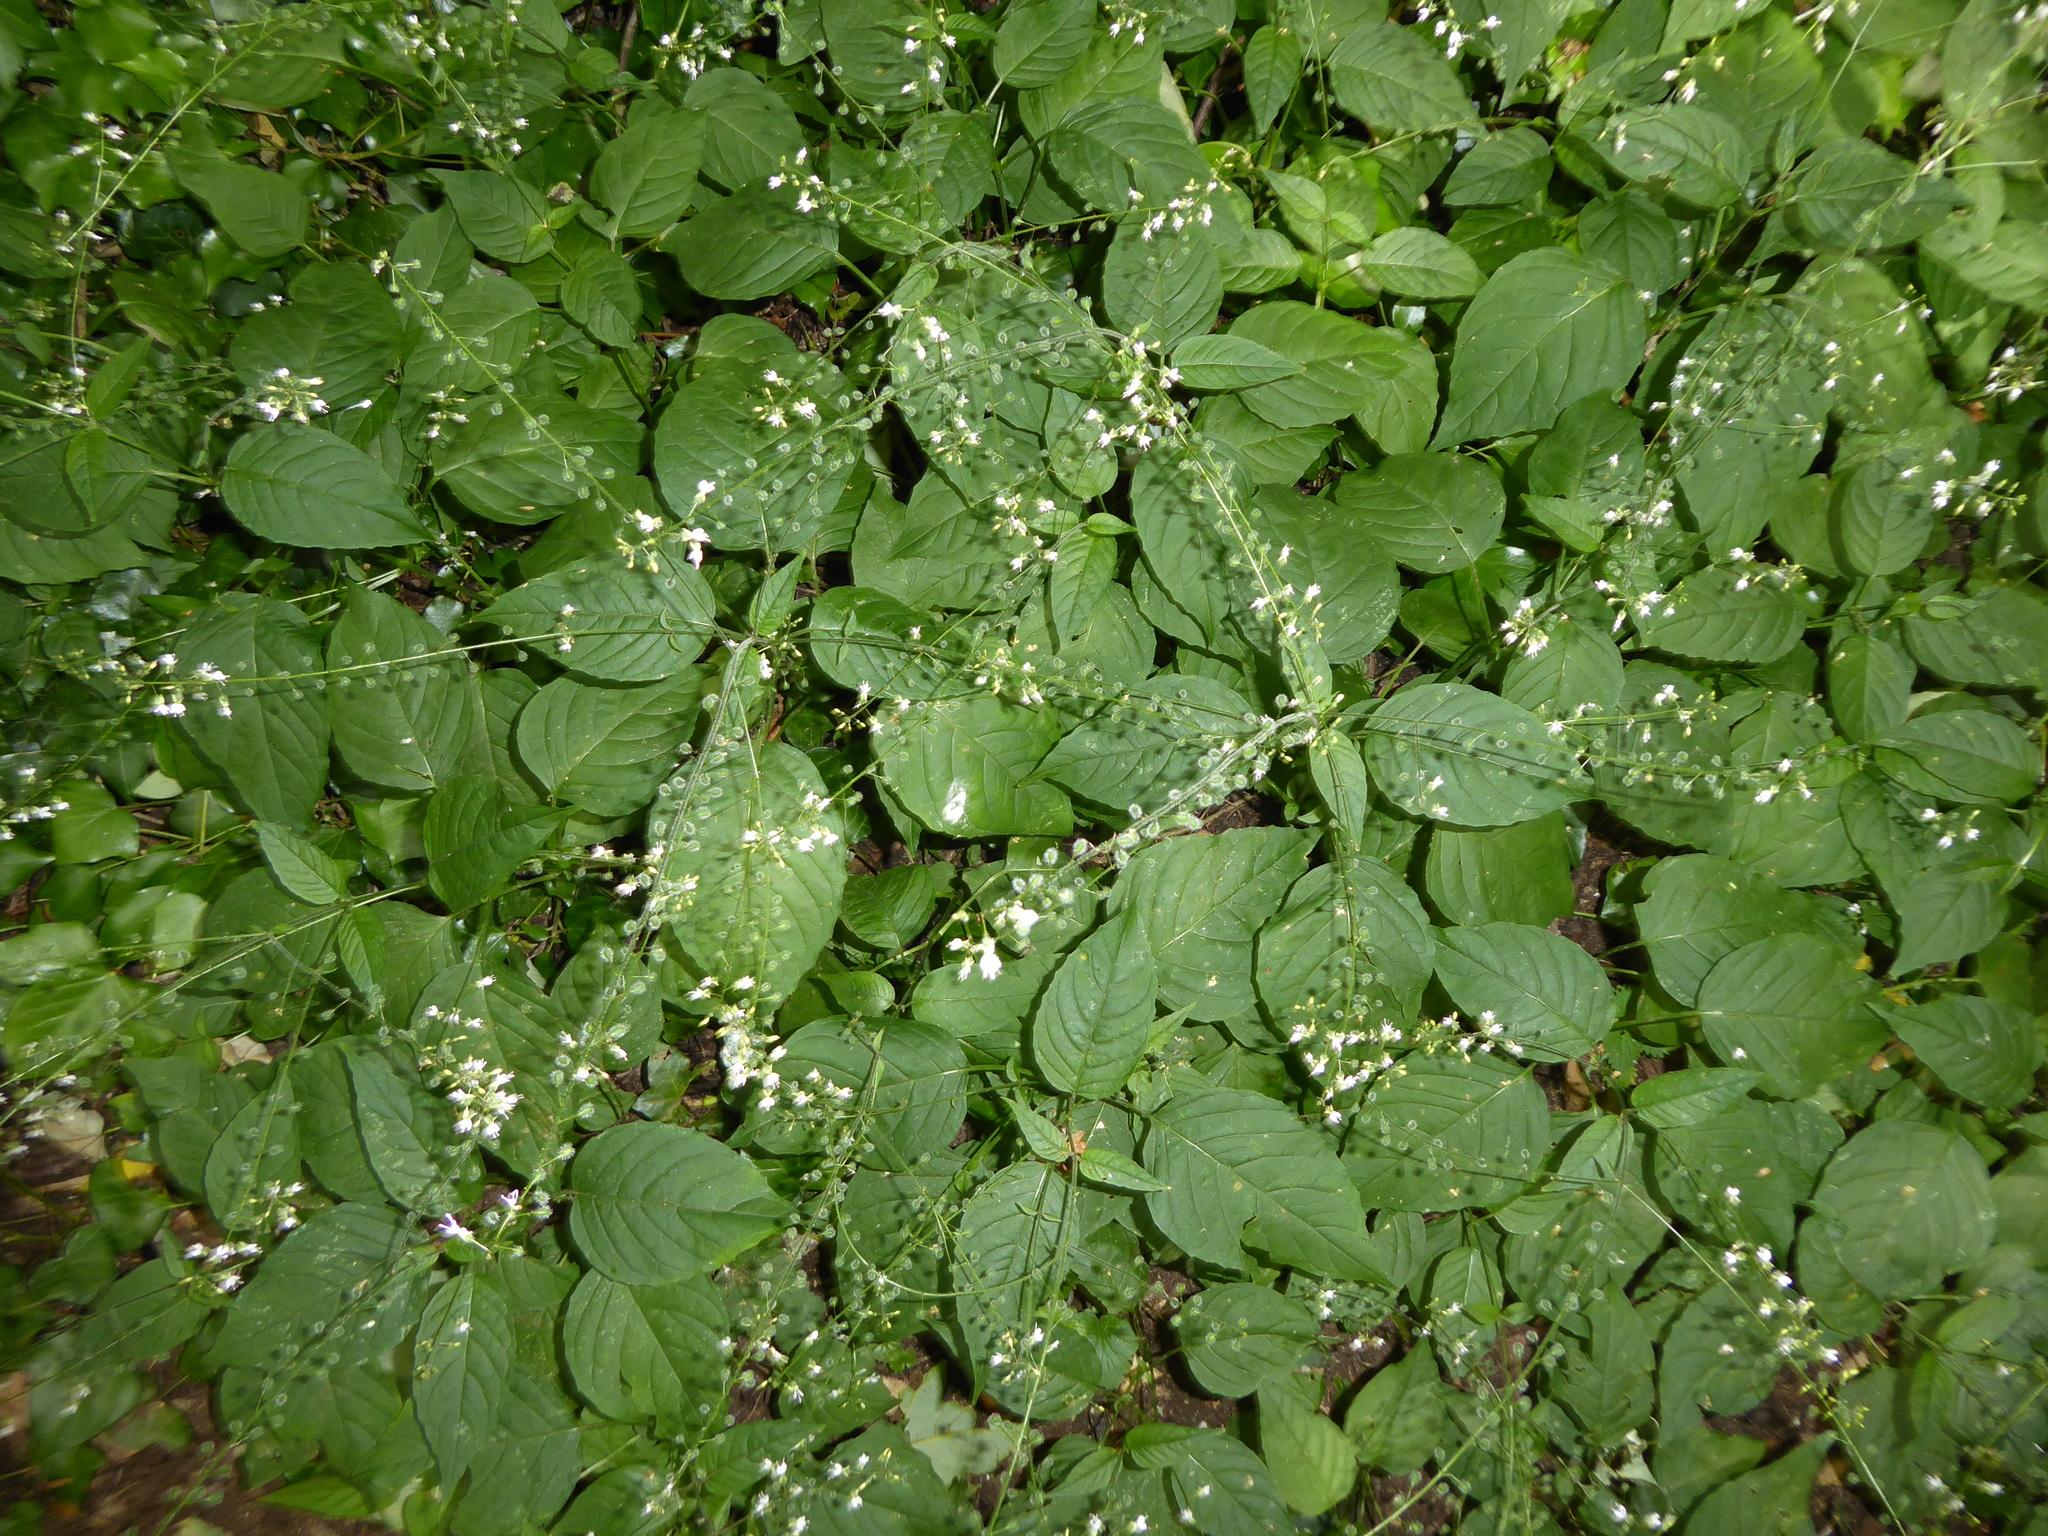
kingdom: Plantae
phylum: Tracheophyta
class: Magnoliopsida
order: Myrtales
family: Onagraceae
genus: Circaea
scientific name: Circaea lutetiana
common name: Enchanter's-nightshade
